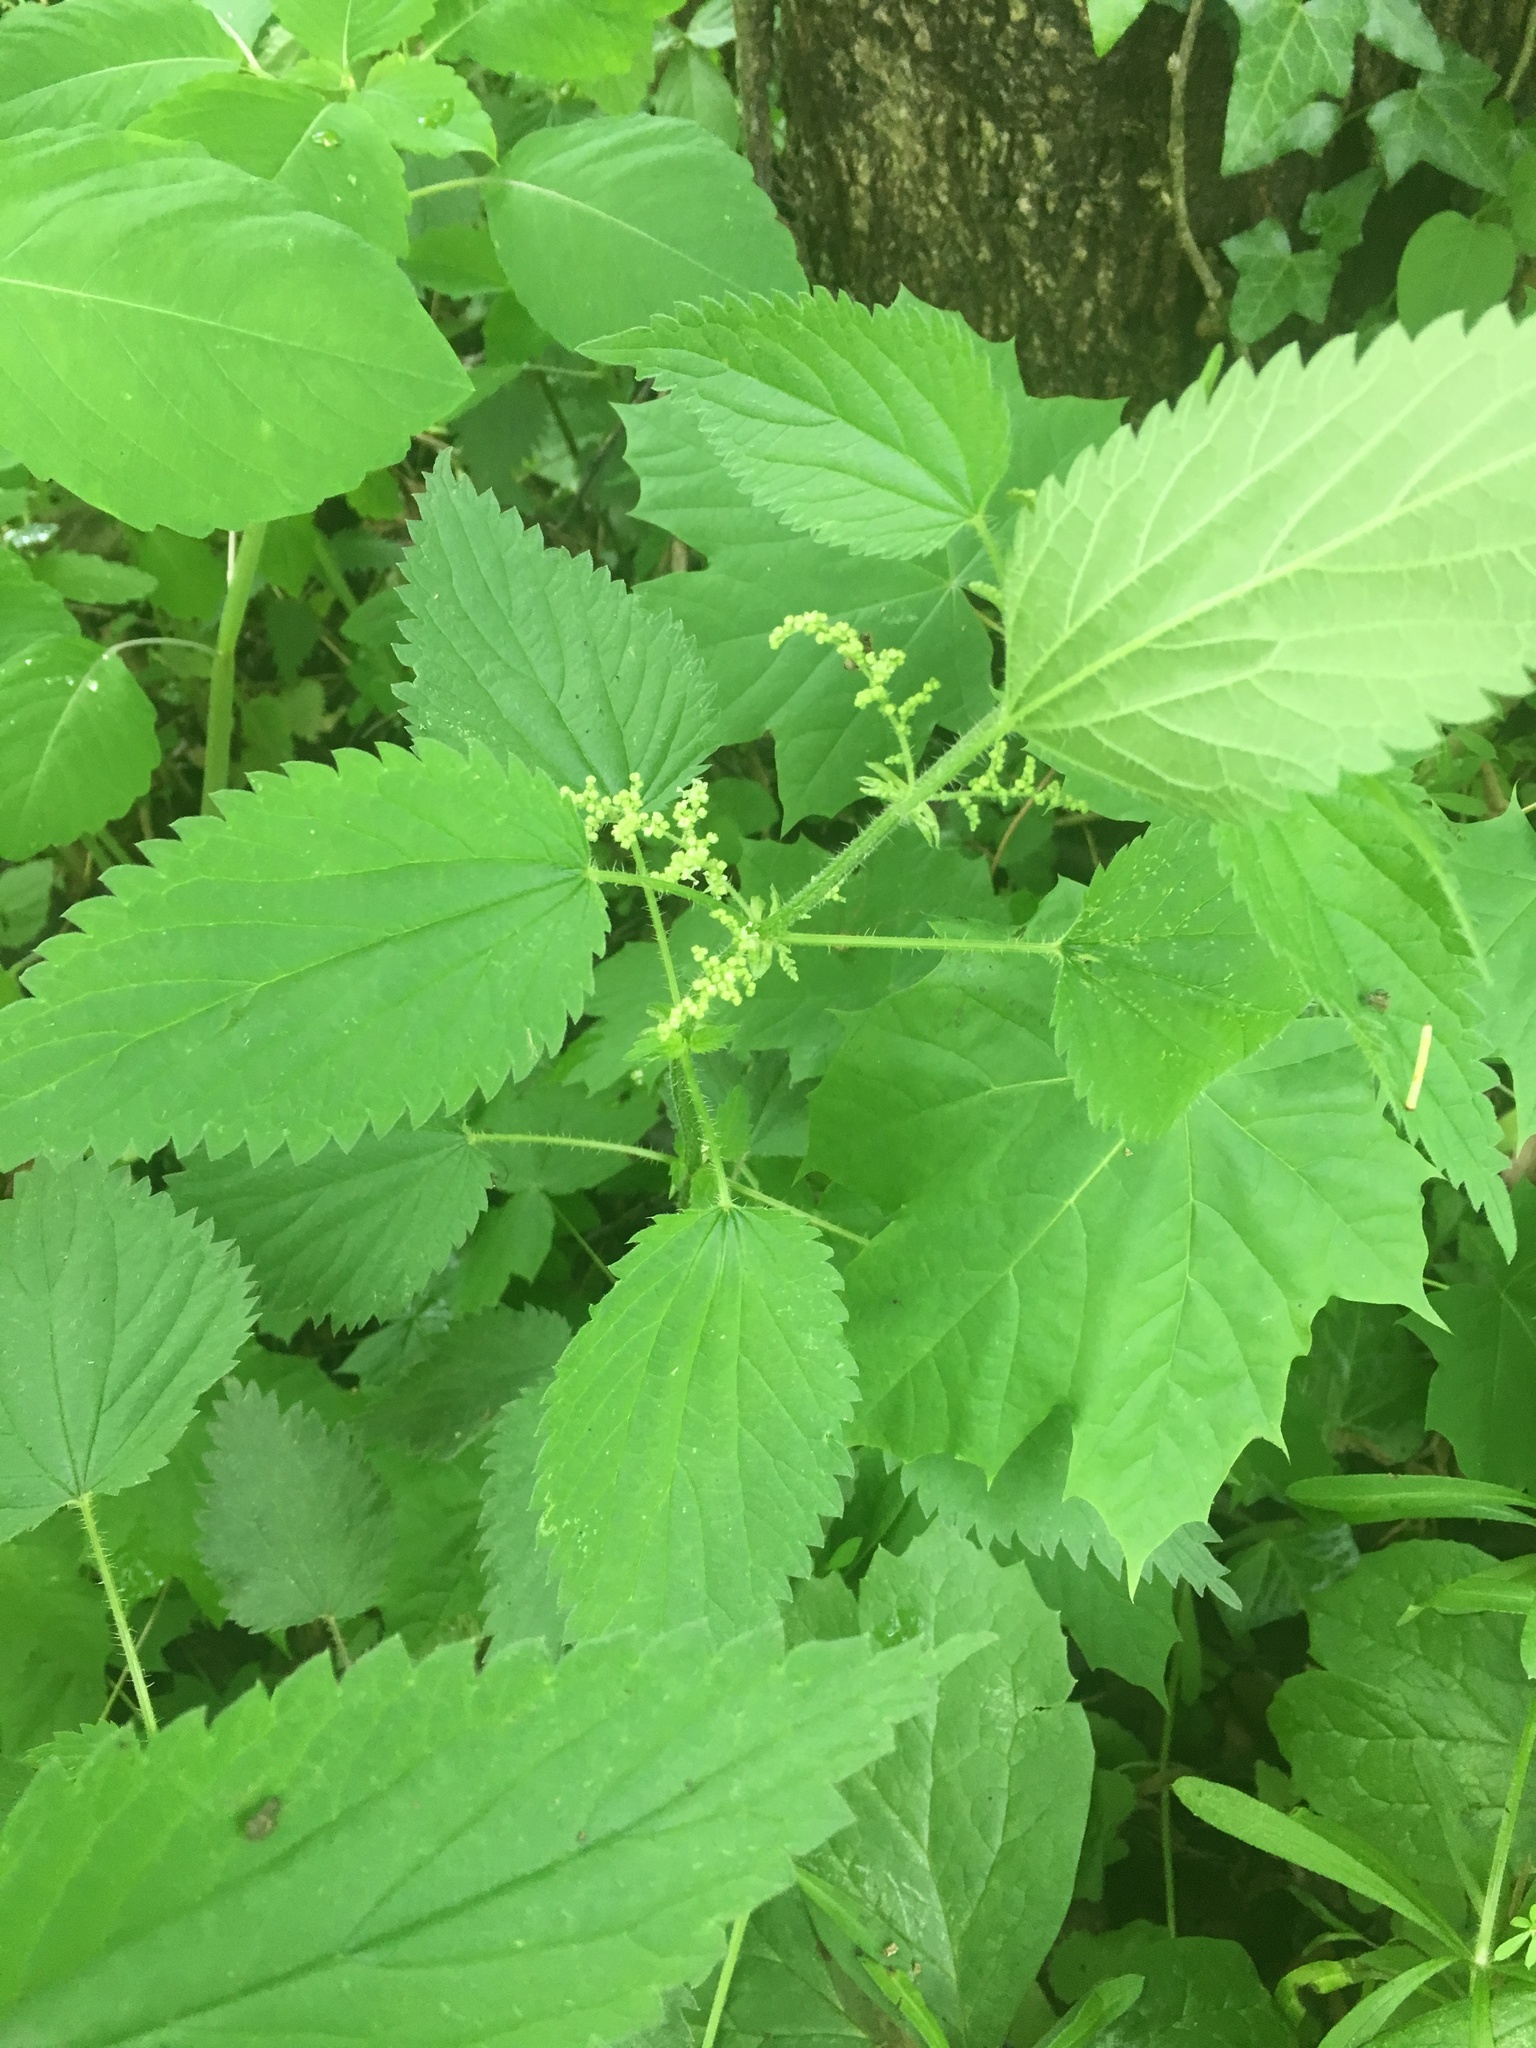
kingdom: Plantae
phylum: Tracheophyta
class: Magnoliopsida
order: Rosales
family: Urticaceae
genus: Urtica
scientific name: Urtica dioica
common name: Common nettle
